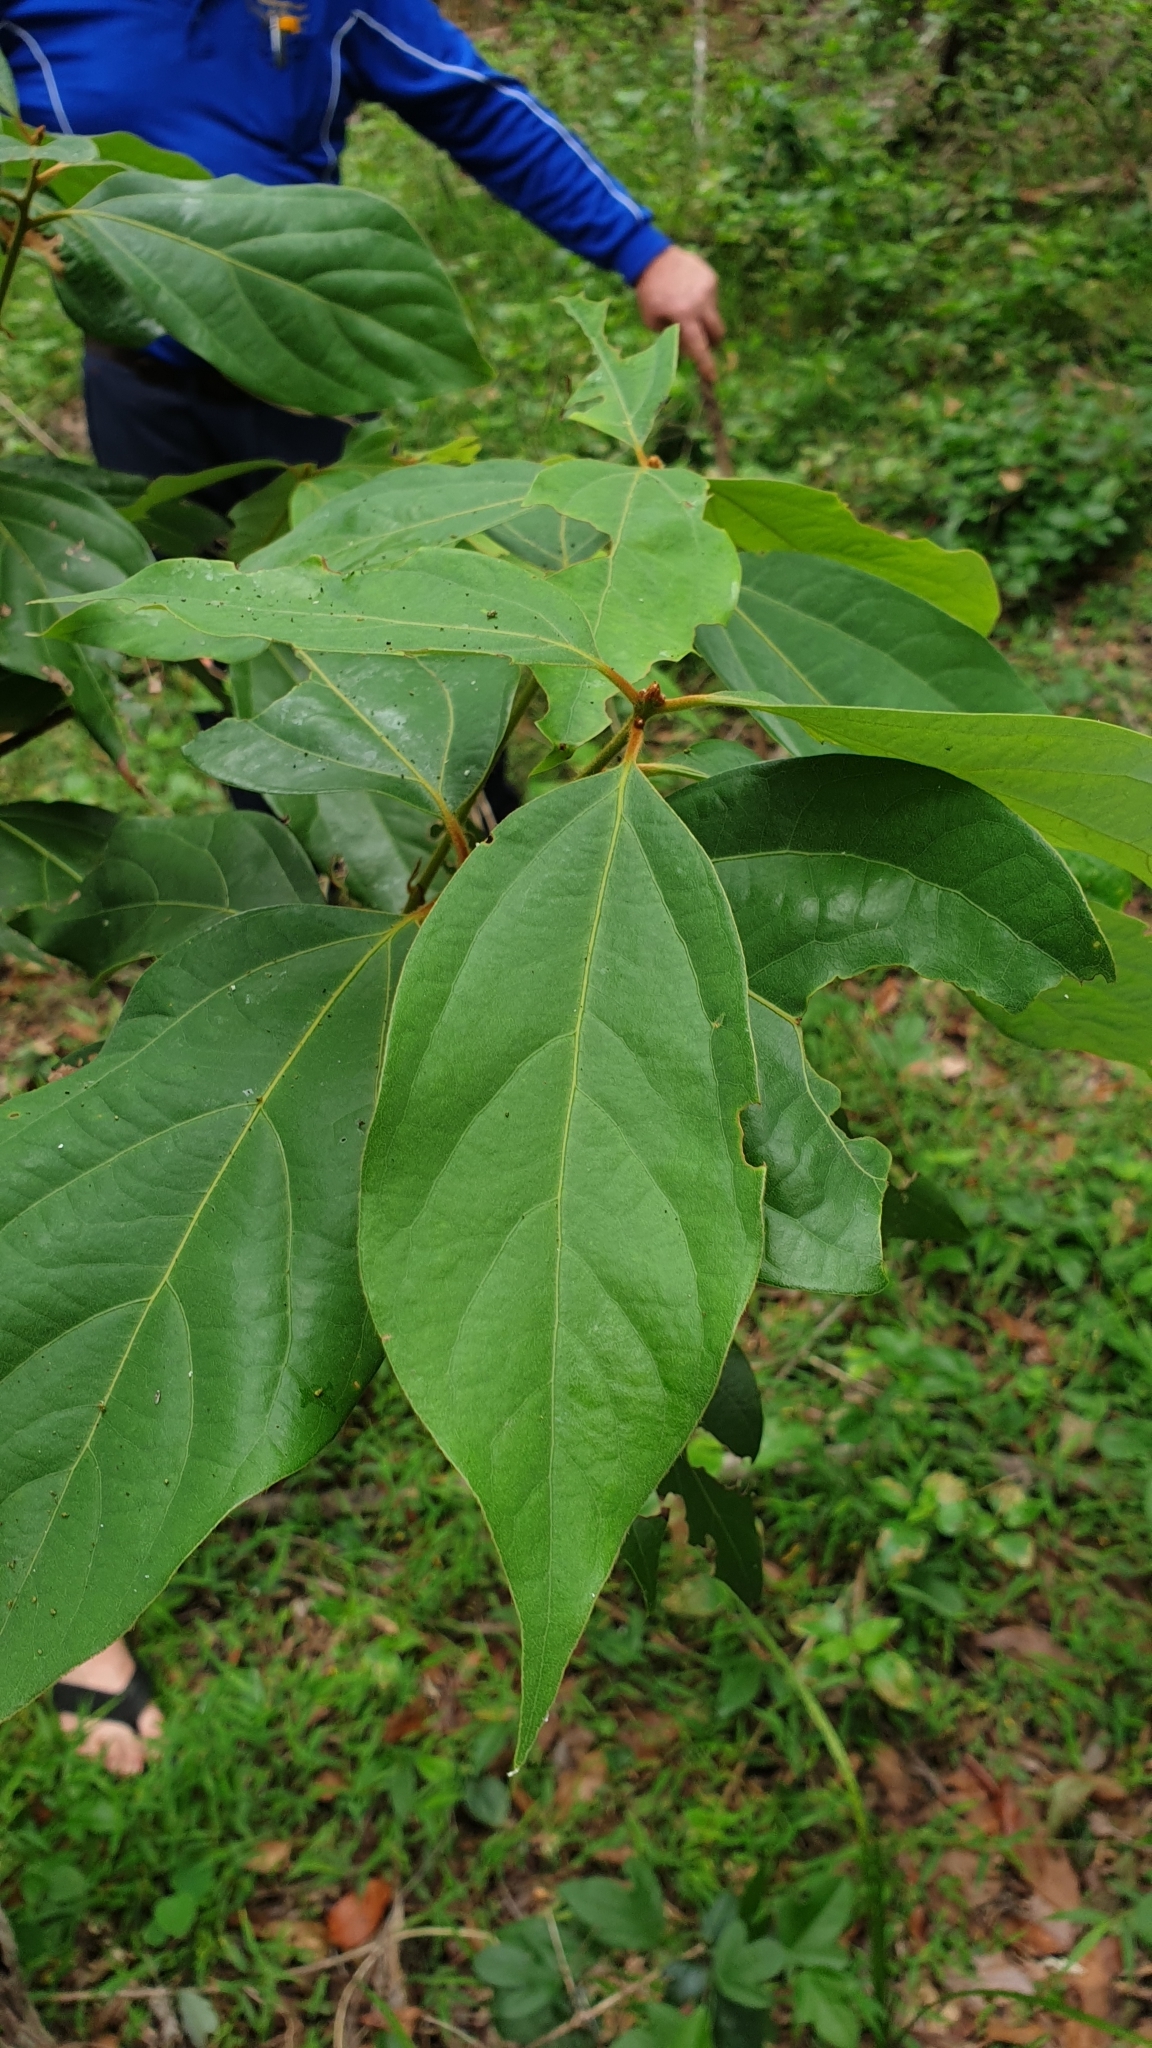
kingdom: Plantae
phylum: Tracheophyta
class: Magnoliopsida
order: Laurales
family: Lauraceae
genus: Neolitsea
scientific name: Neolitsea dealbata
